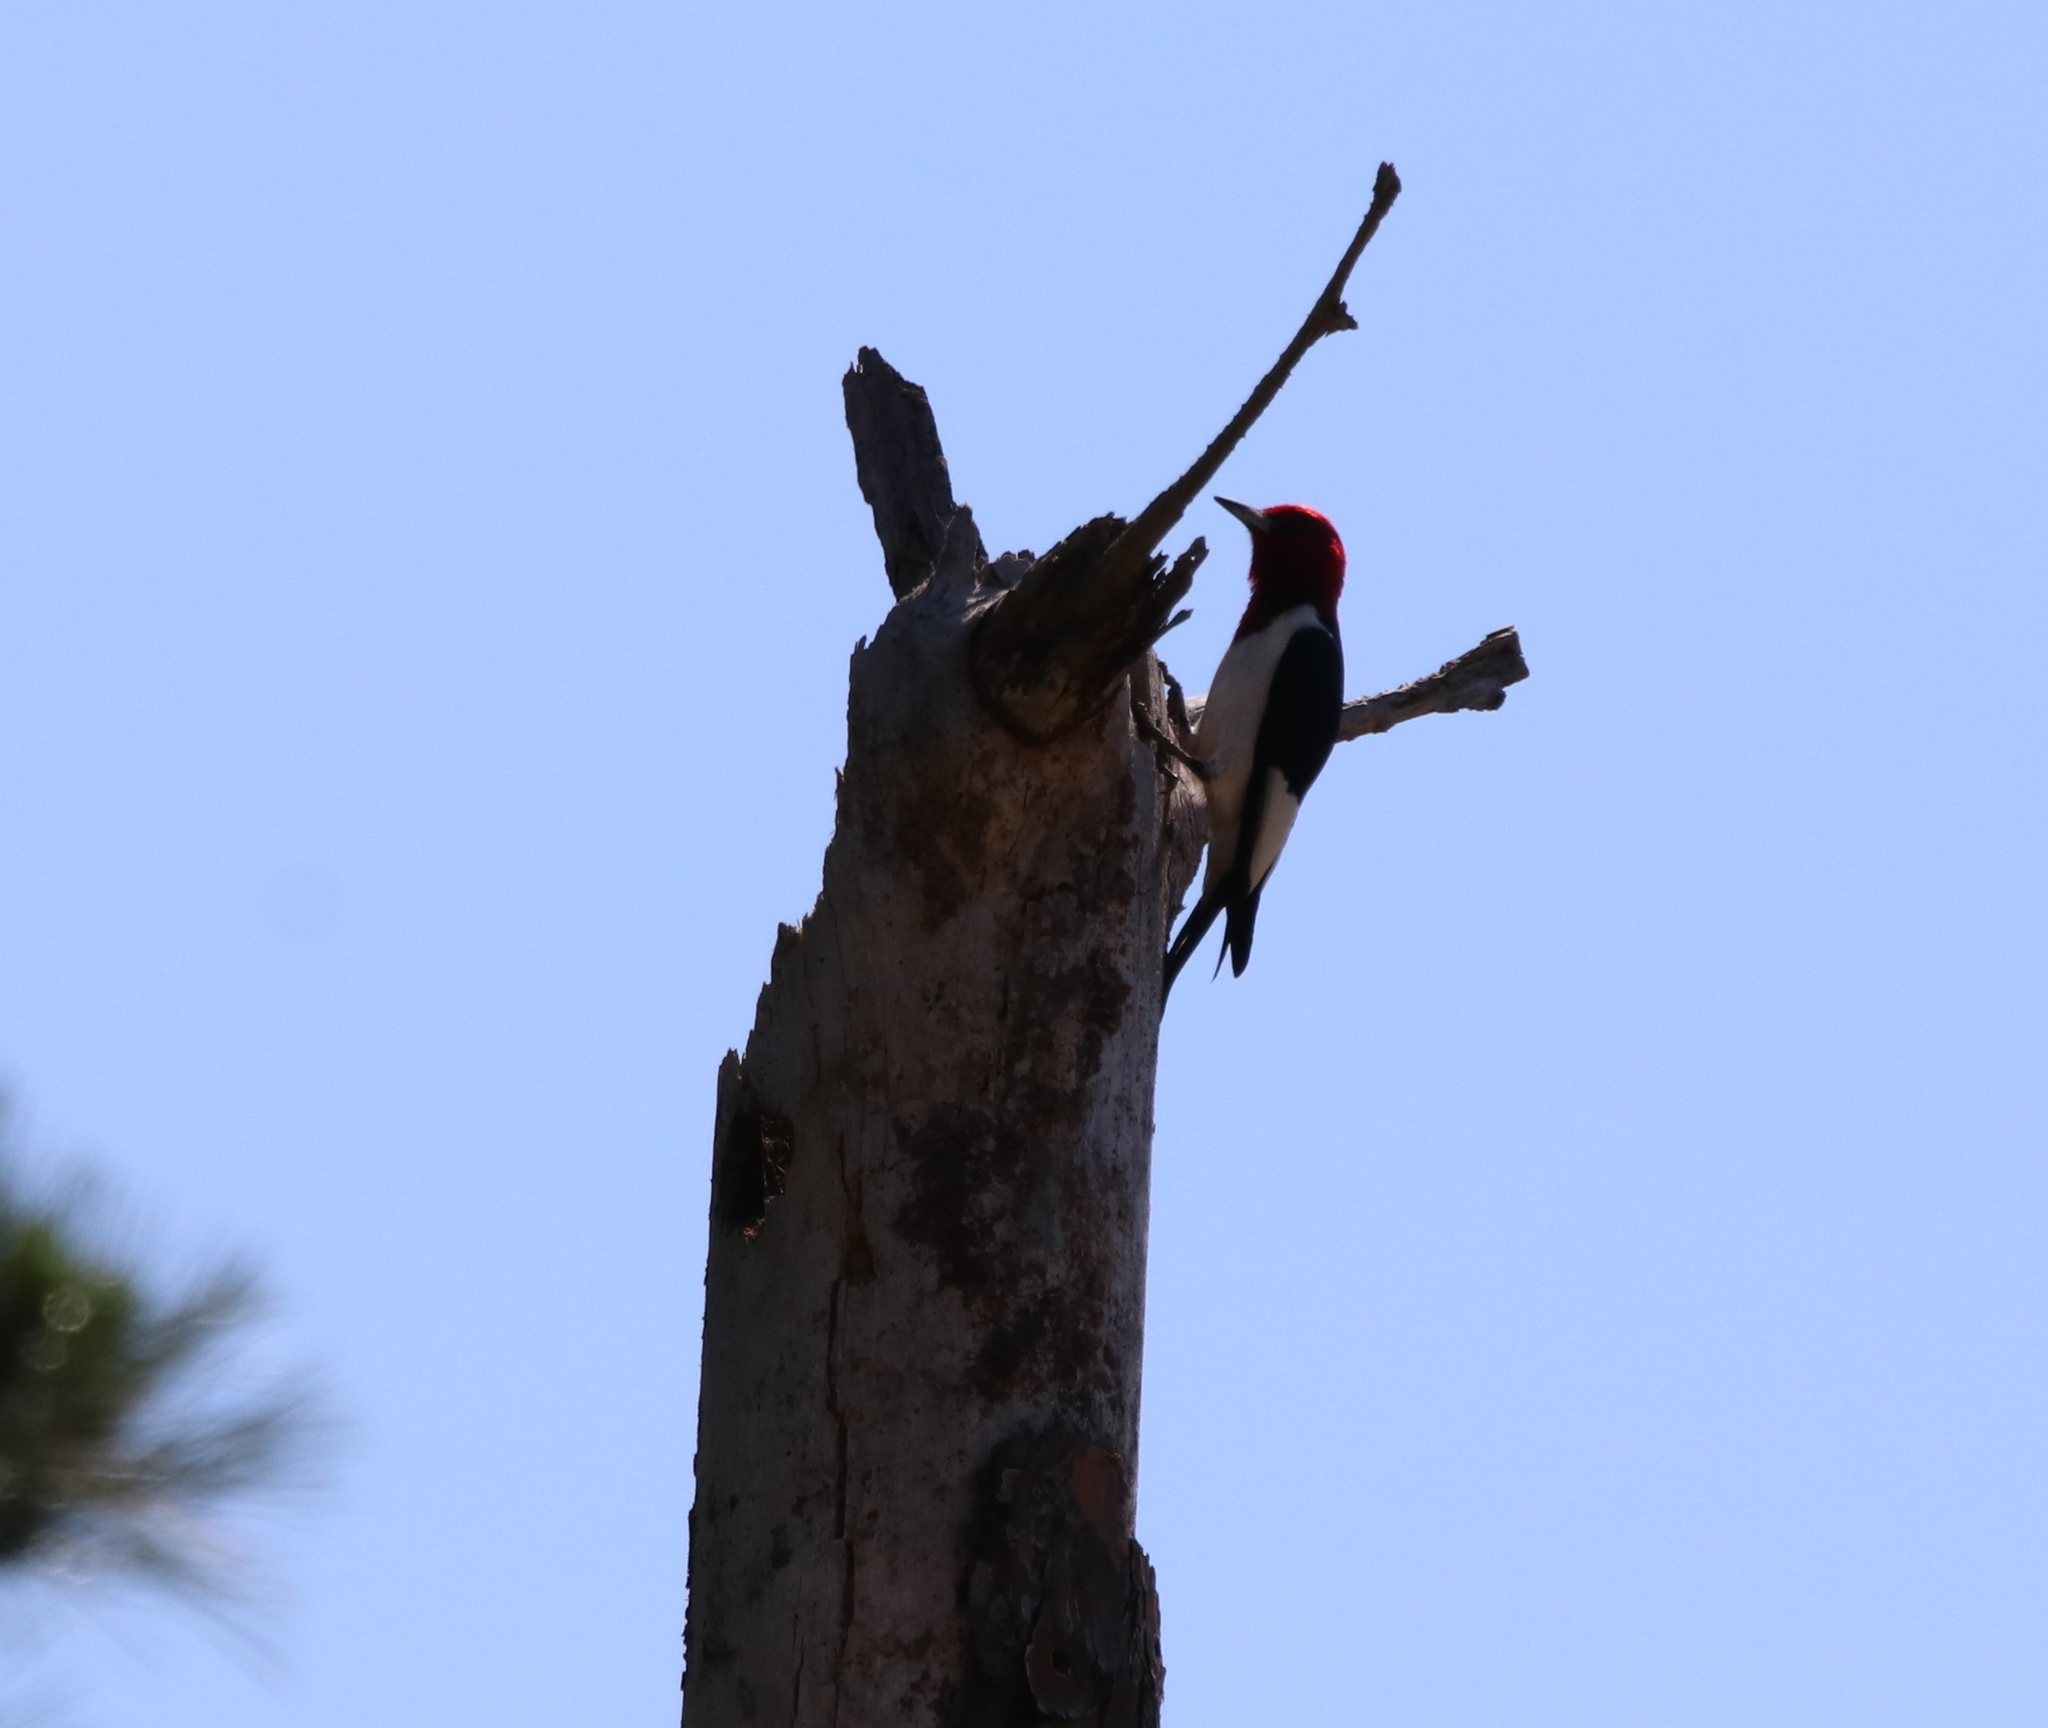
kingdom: Animalia
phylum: Chordata
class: Aves
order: Piciformes
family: Picidae
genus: Melanerpes
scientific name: Melanerpes erythrocephalus
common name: Red-headed woodpecker
